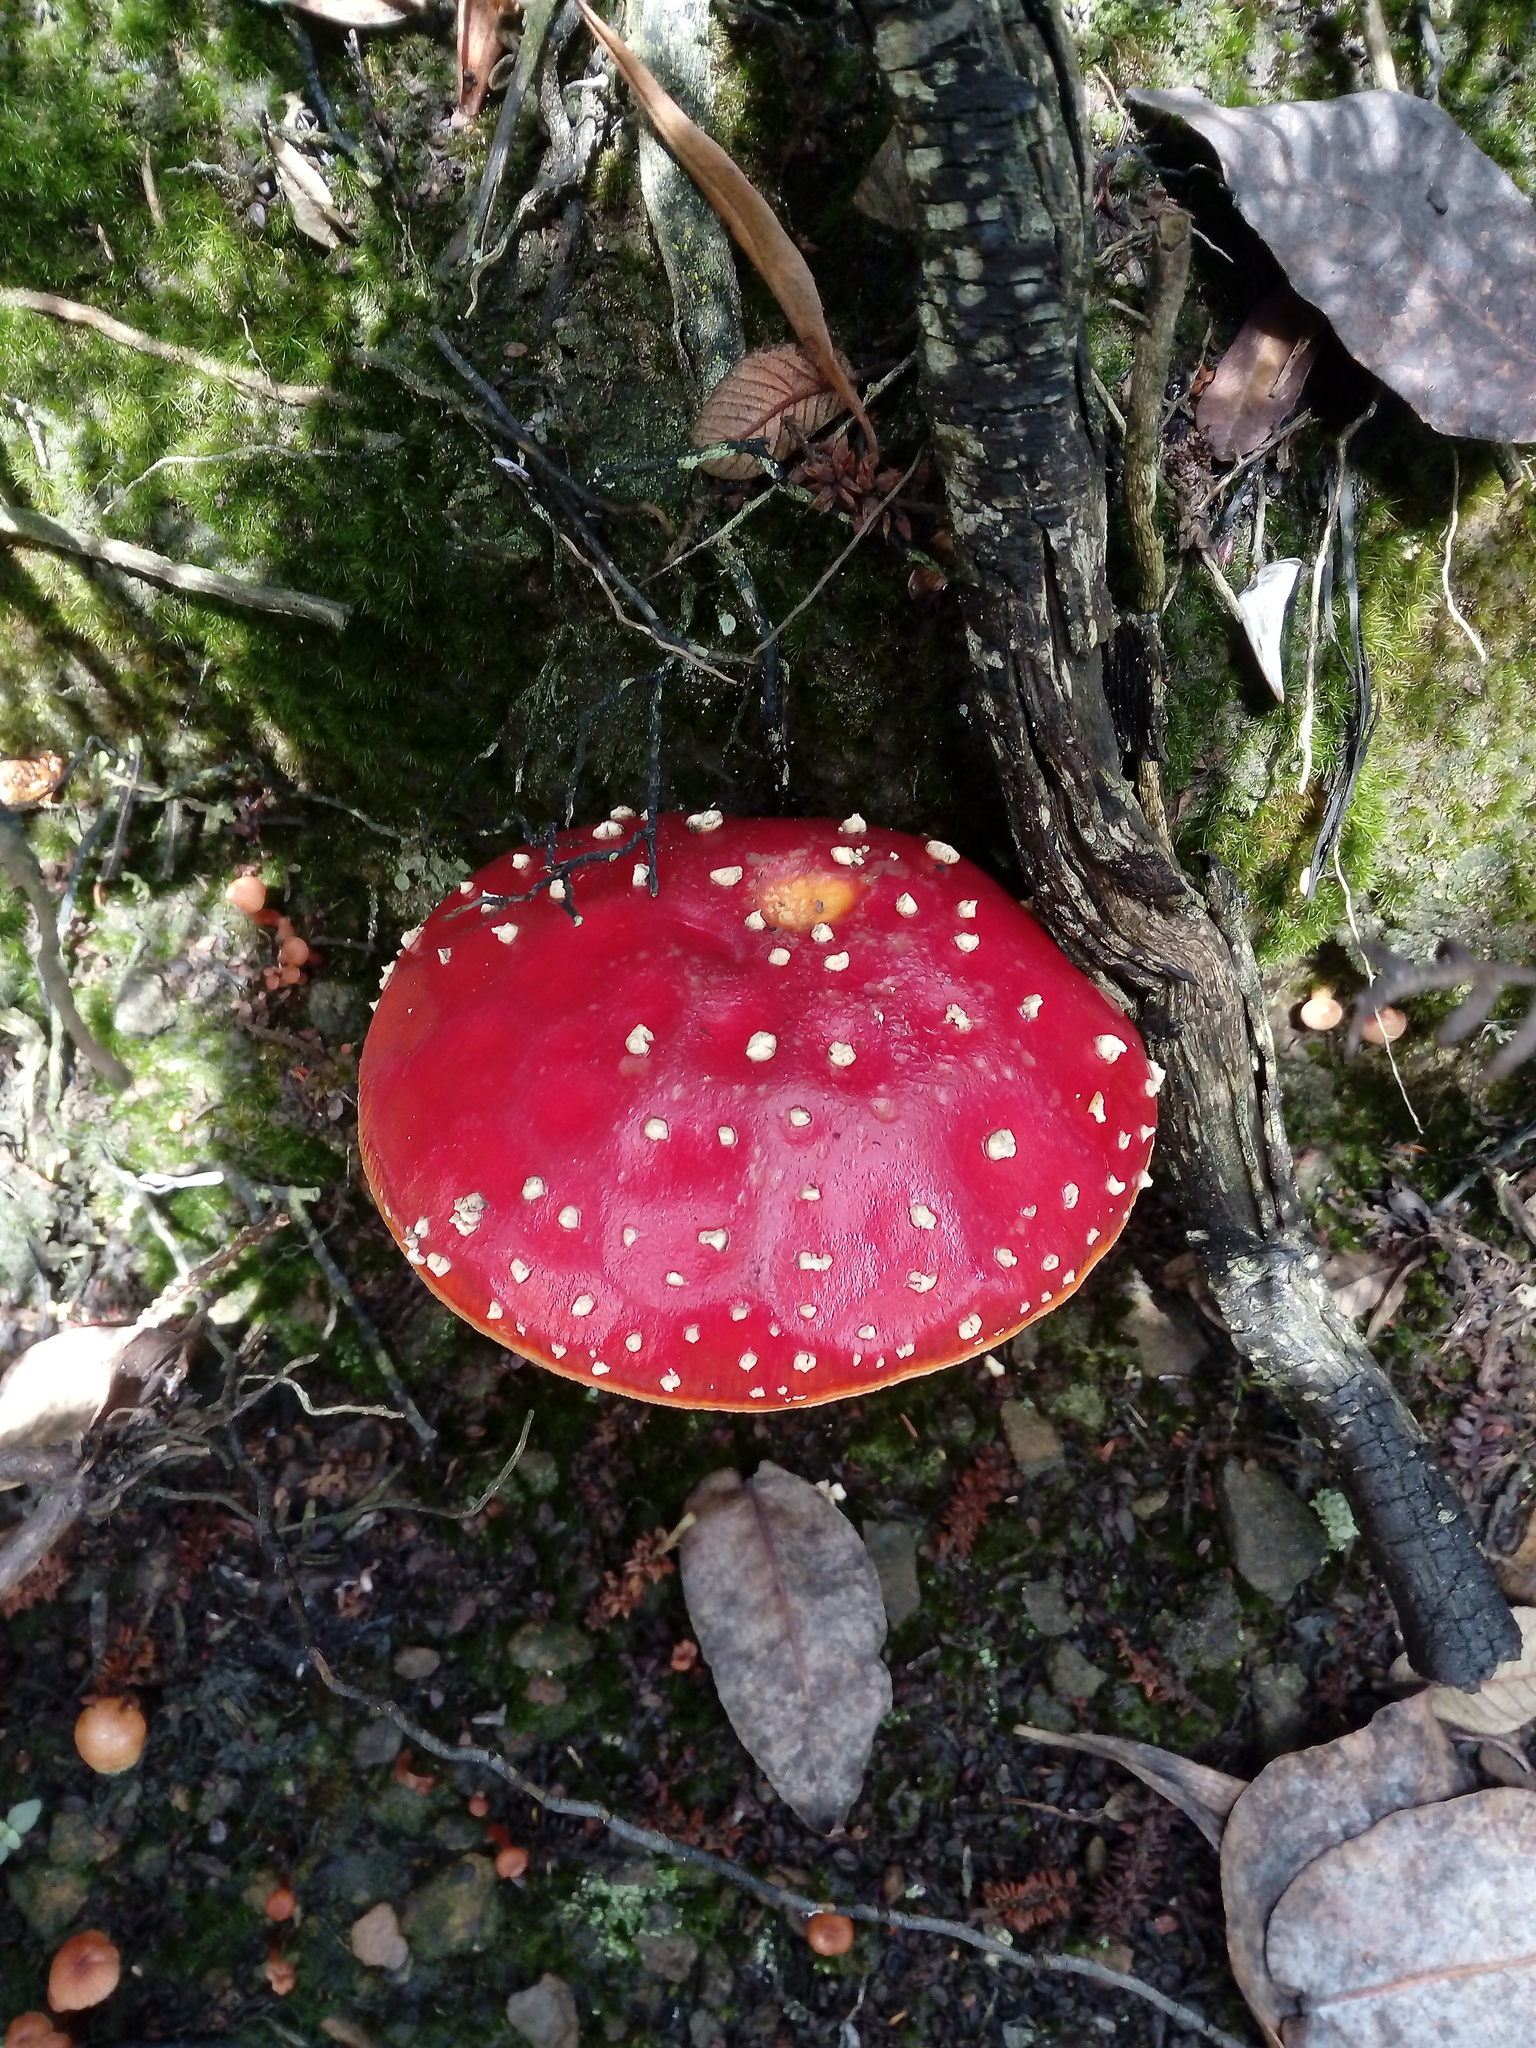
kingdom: Fungi
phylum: Basidiomycota
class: Agaricomycetes
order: Agaricales
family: Amanitaceae
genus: Amanita
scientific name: Amanita muscaria
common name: Fly agaric
